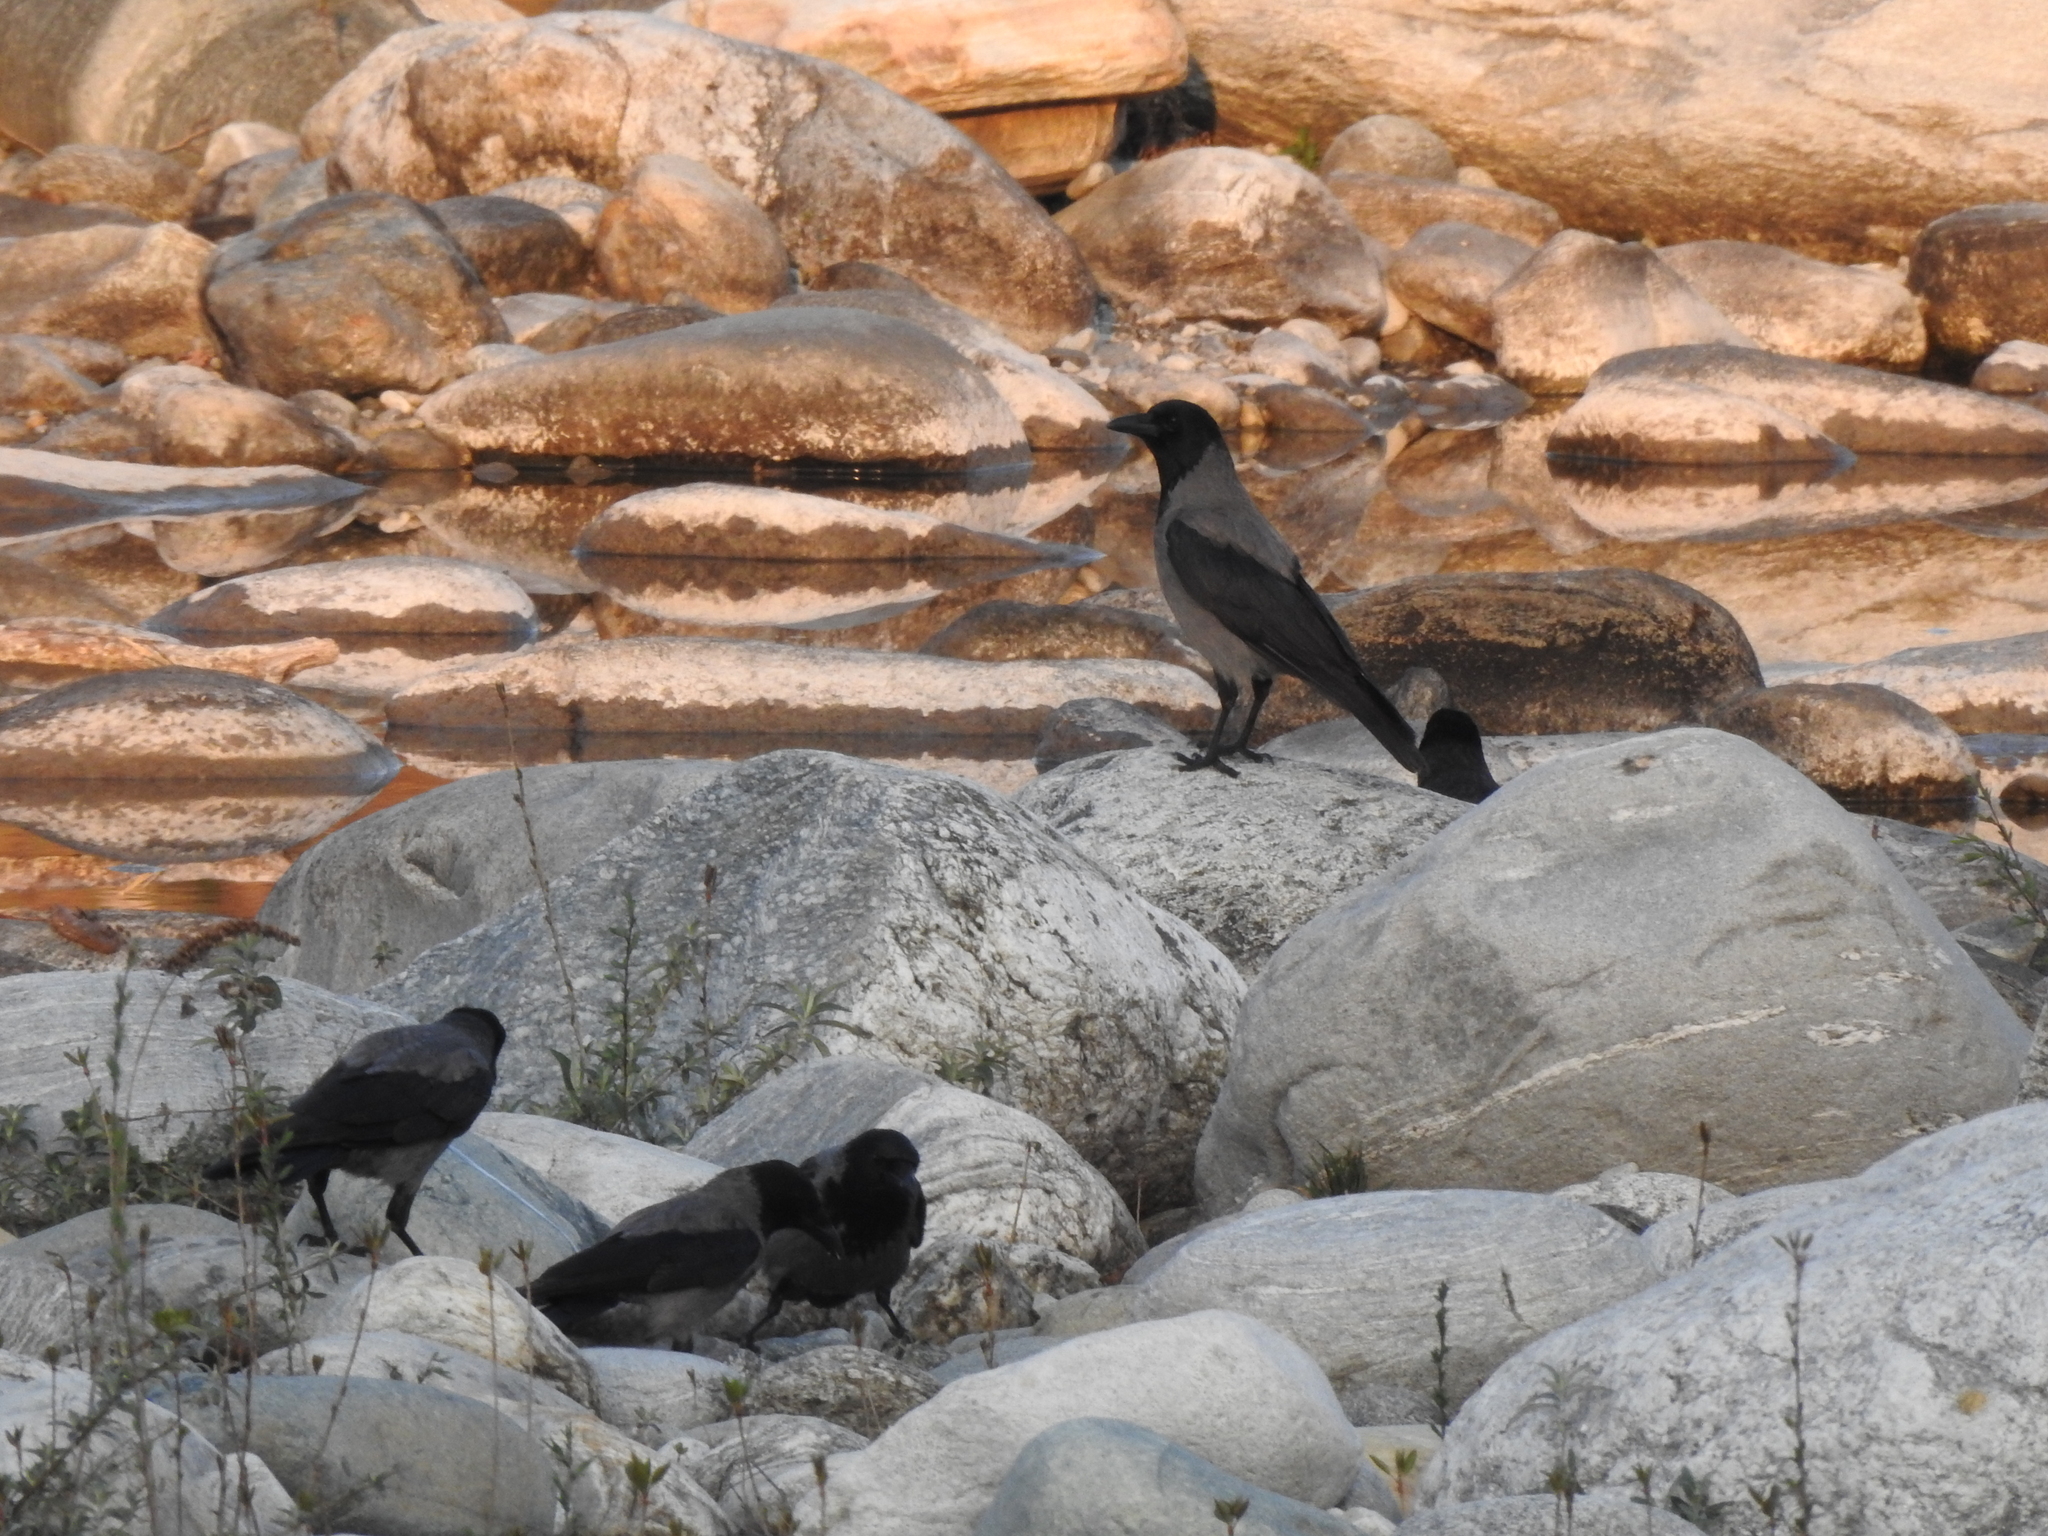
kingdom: Animalia
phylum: Chordata
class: Aves
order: Passeriformes
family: Corvidae
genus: Corvus
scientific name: Corvus cornix
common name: Hooded crow
